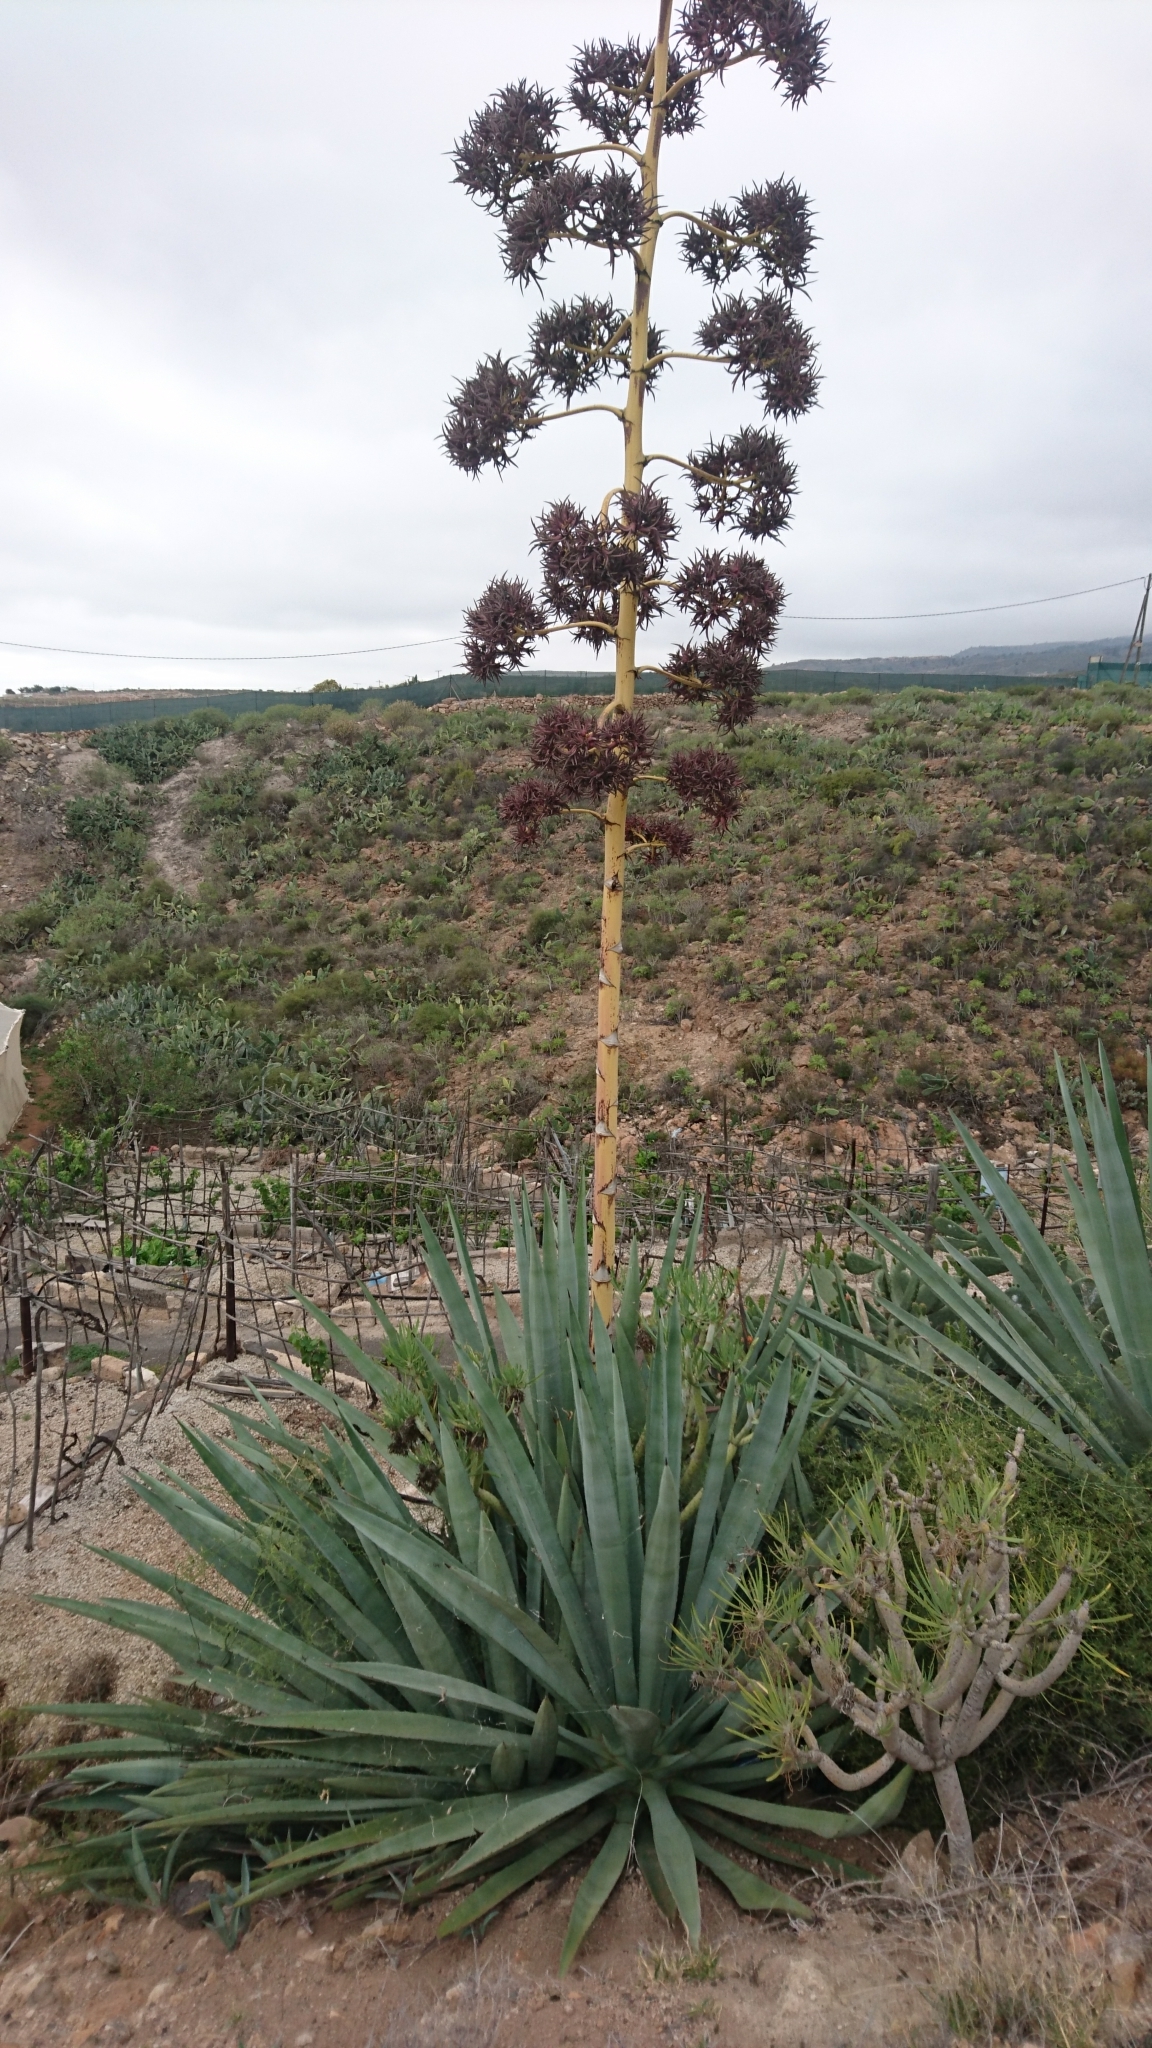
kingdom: Plantae
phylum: Tracheophyta
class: Liliopsida
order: Asparagales
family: Asparagaceae
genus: Agave
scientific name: Agave americana
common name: Centuryplant
